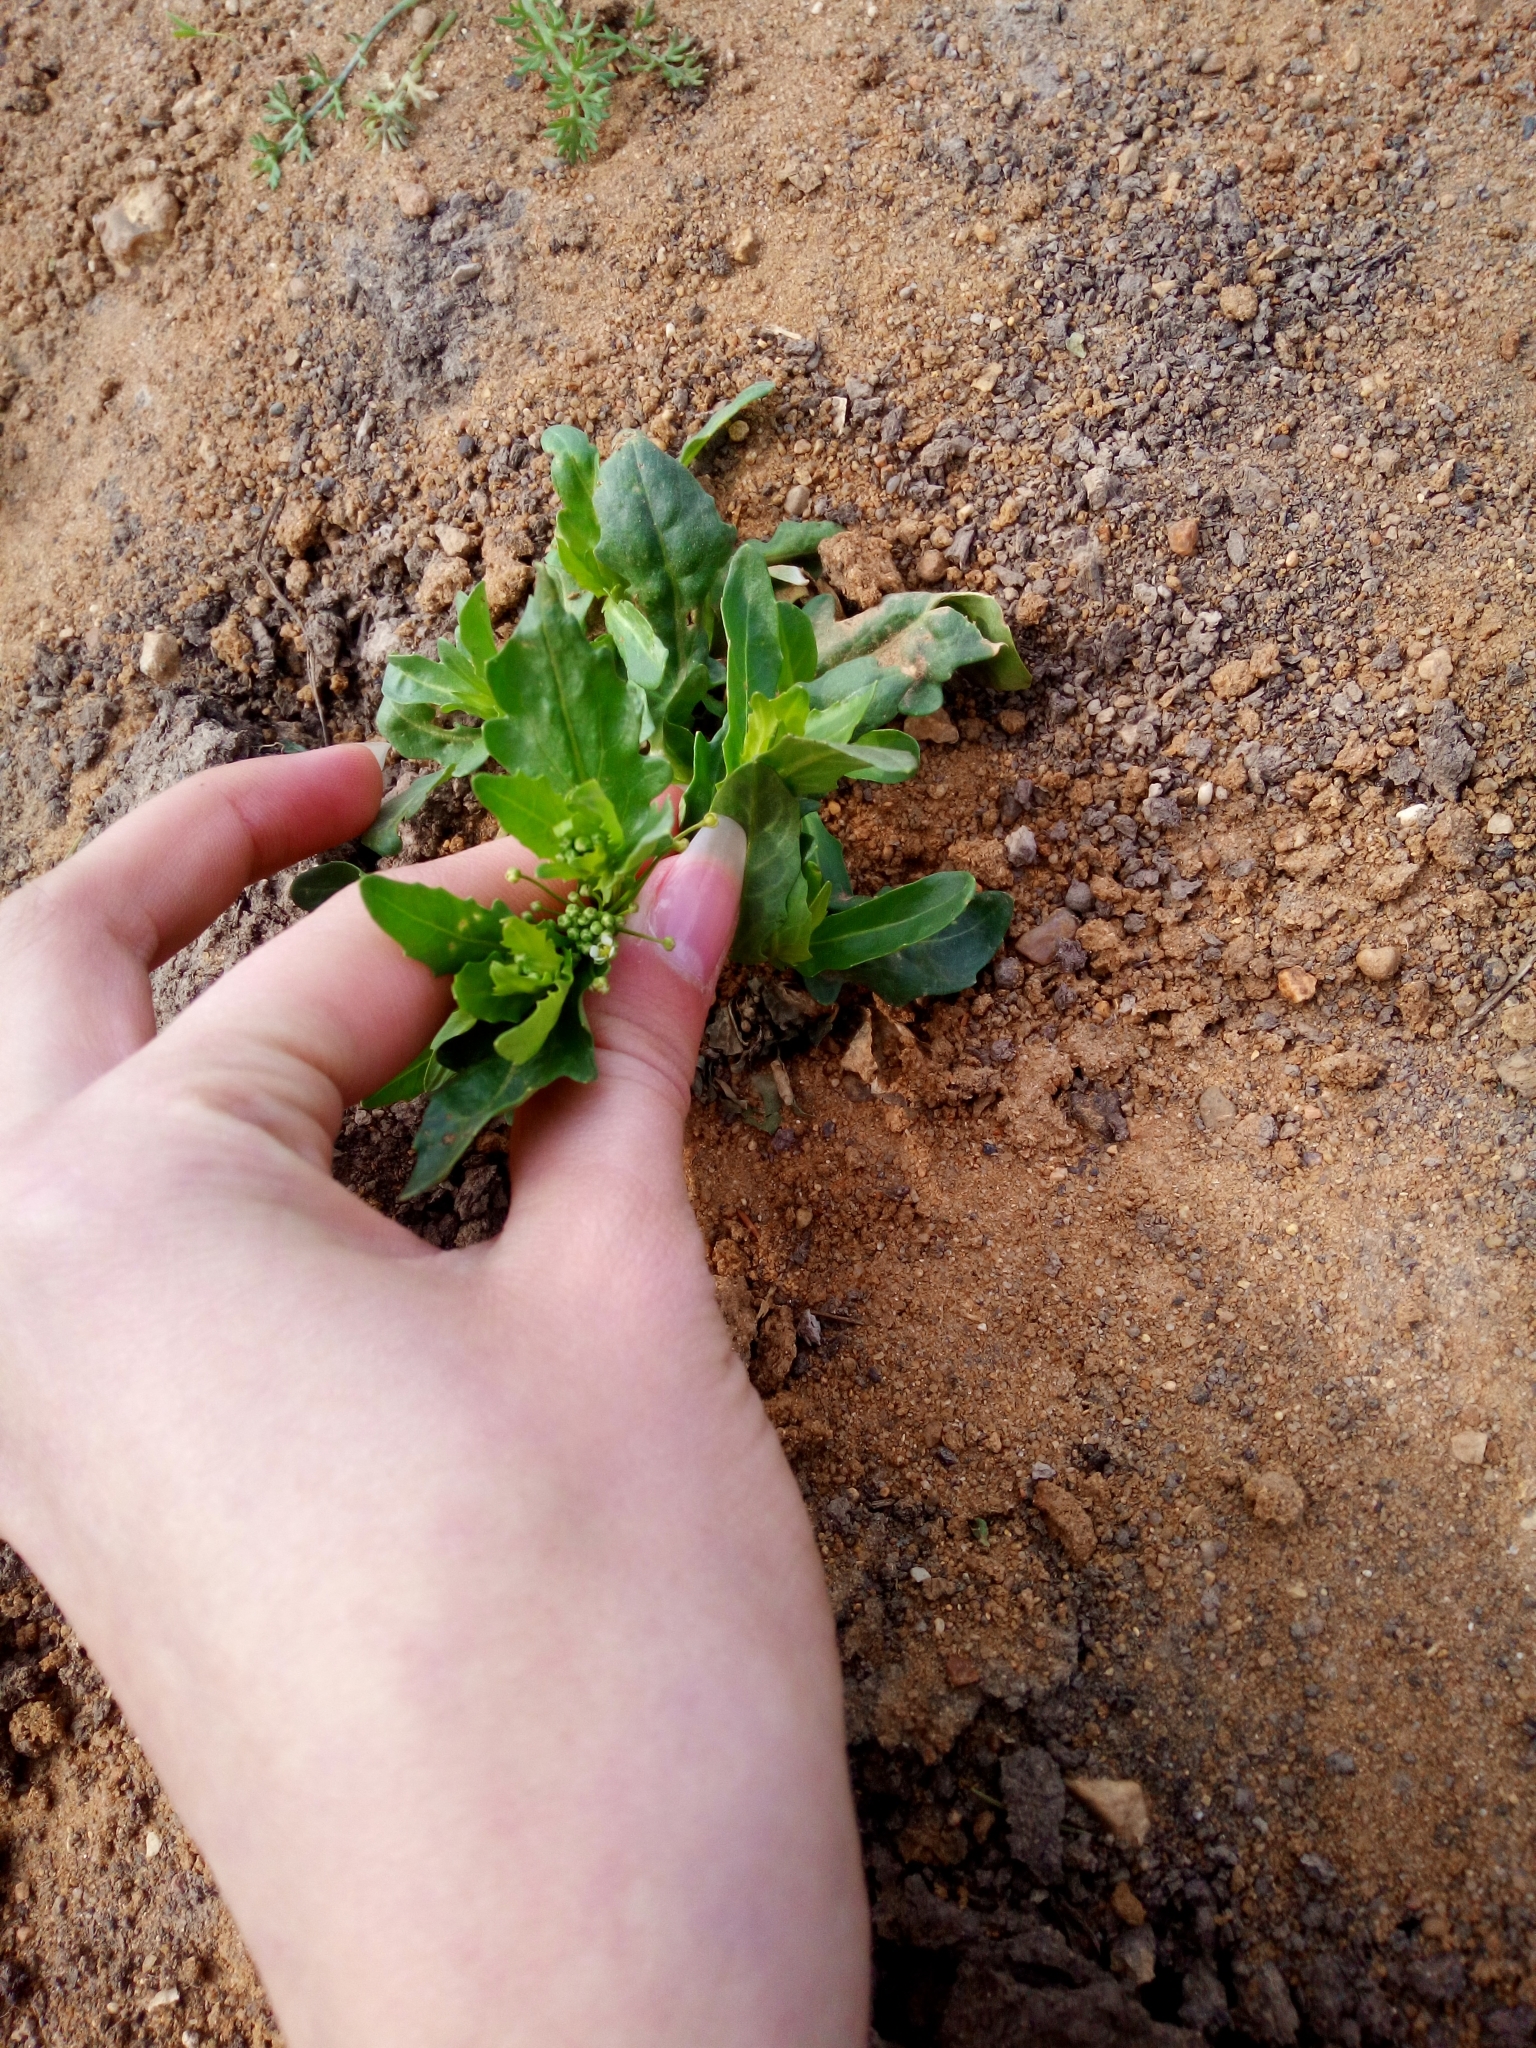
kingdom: Plantae
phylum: Tracheophyta
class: Magnoliopsida
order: Brassicales
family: Brassicaceae
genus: Thlaspi
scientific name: Thlaspi arvense
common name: Field pennycress
